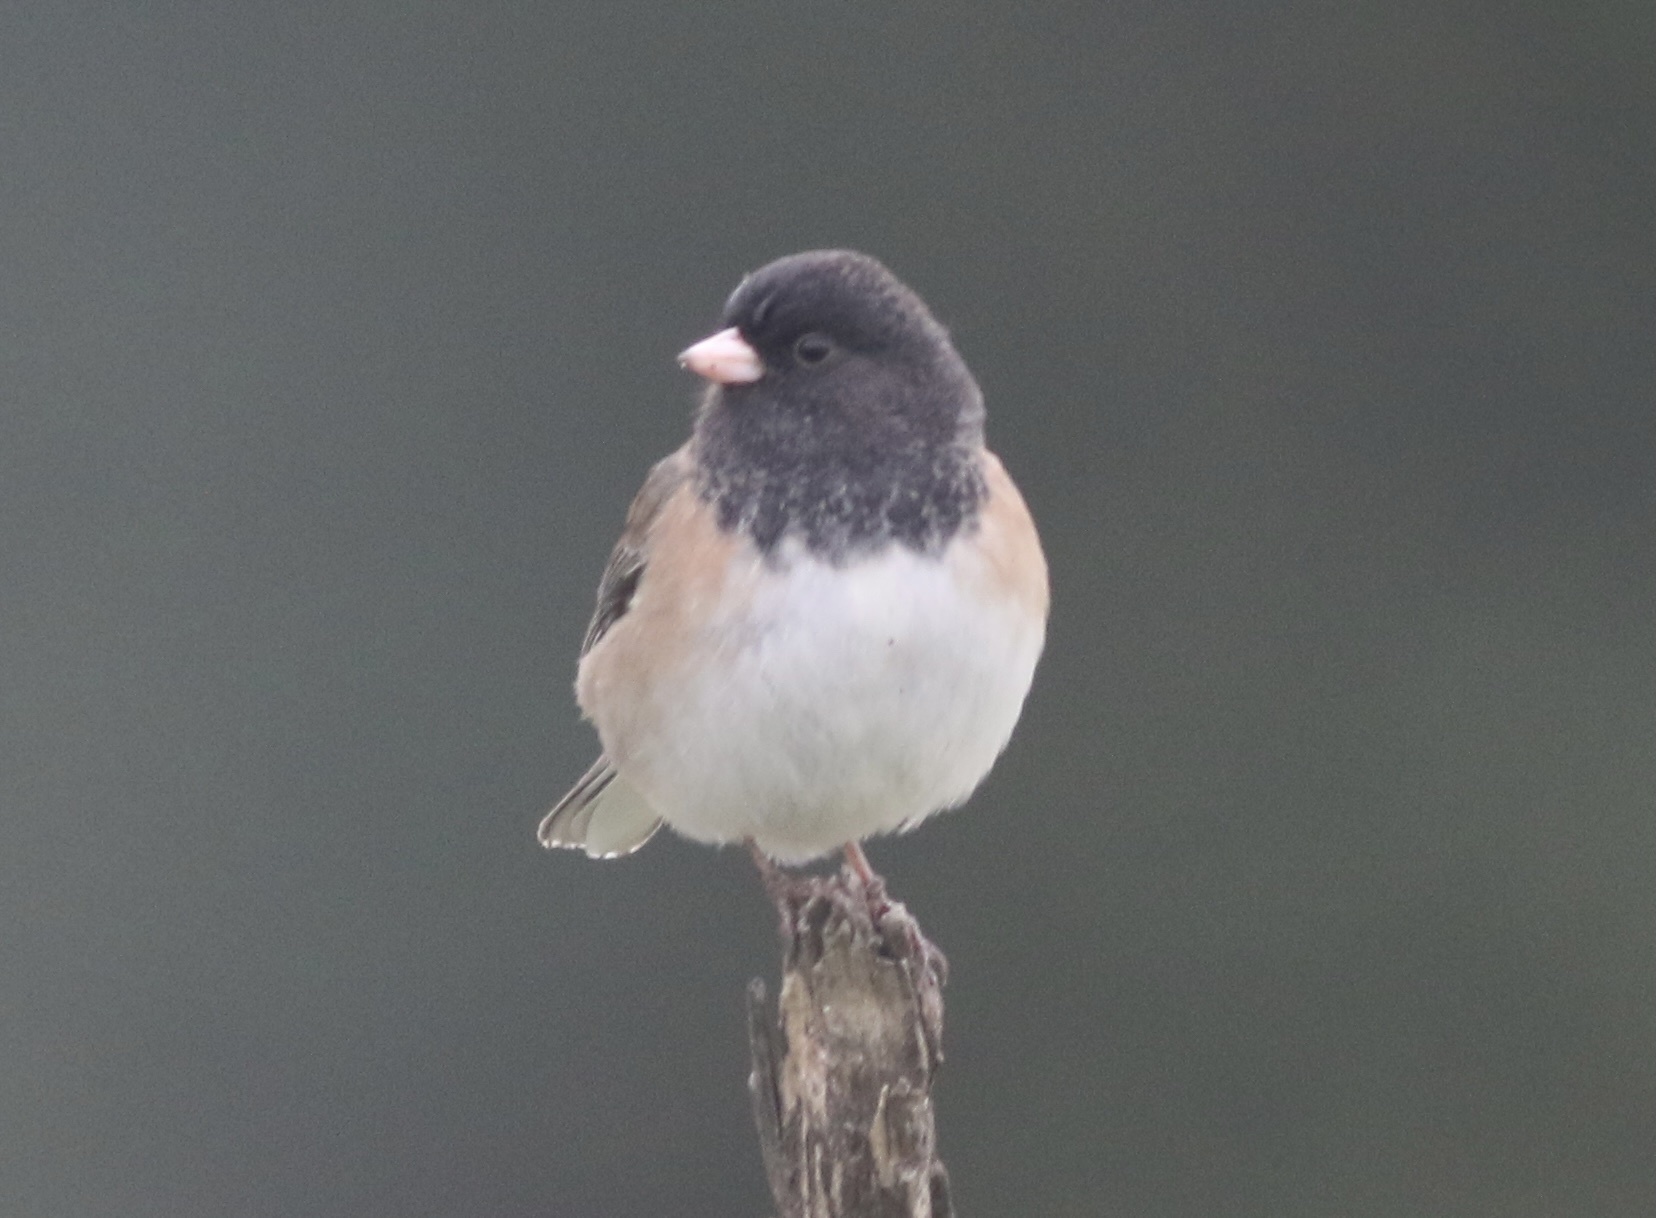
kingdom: Animalia
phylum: Chordata
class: Aves
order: Passeriformes
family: Passerellidae
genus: Junco
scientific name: Junco hyemalis
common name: Dark-eyed junco
